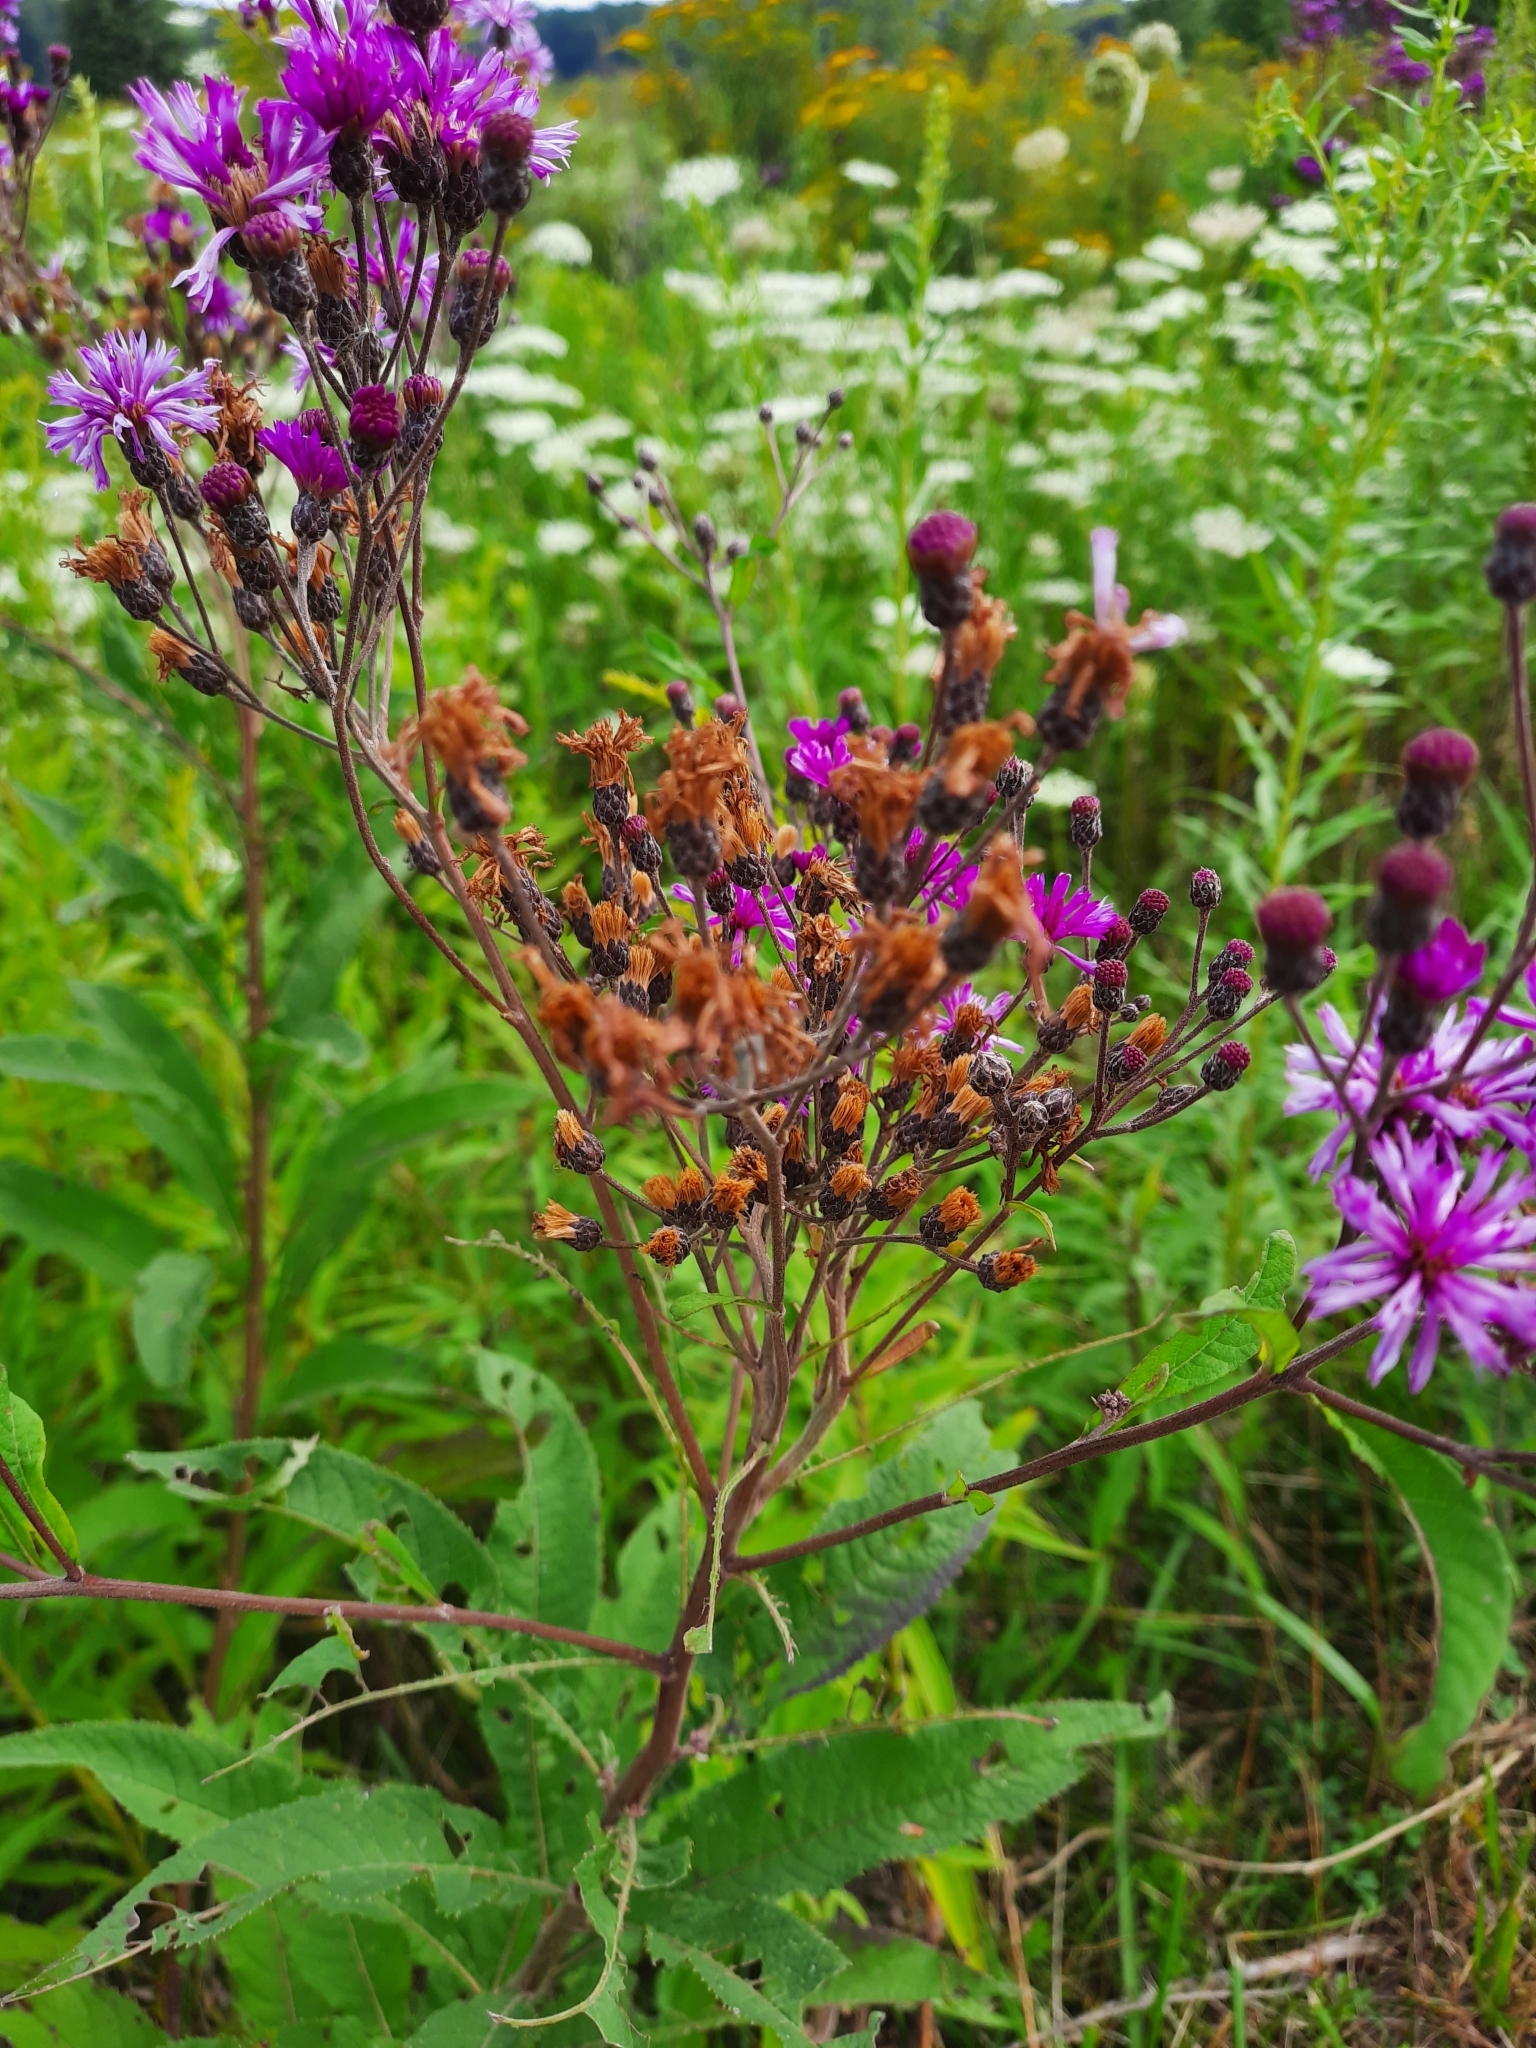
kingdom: Plantae
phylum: Tracheophyta
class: Magnoliopsida
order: Asterales
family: Asteraceae
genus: Vernonia
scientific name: Vernonia gigantea
